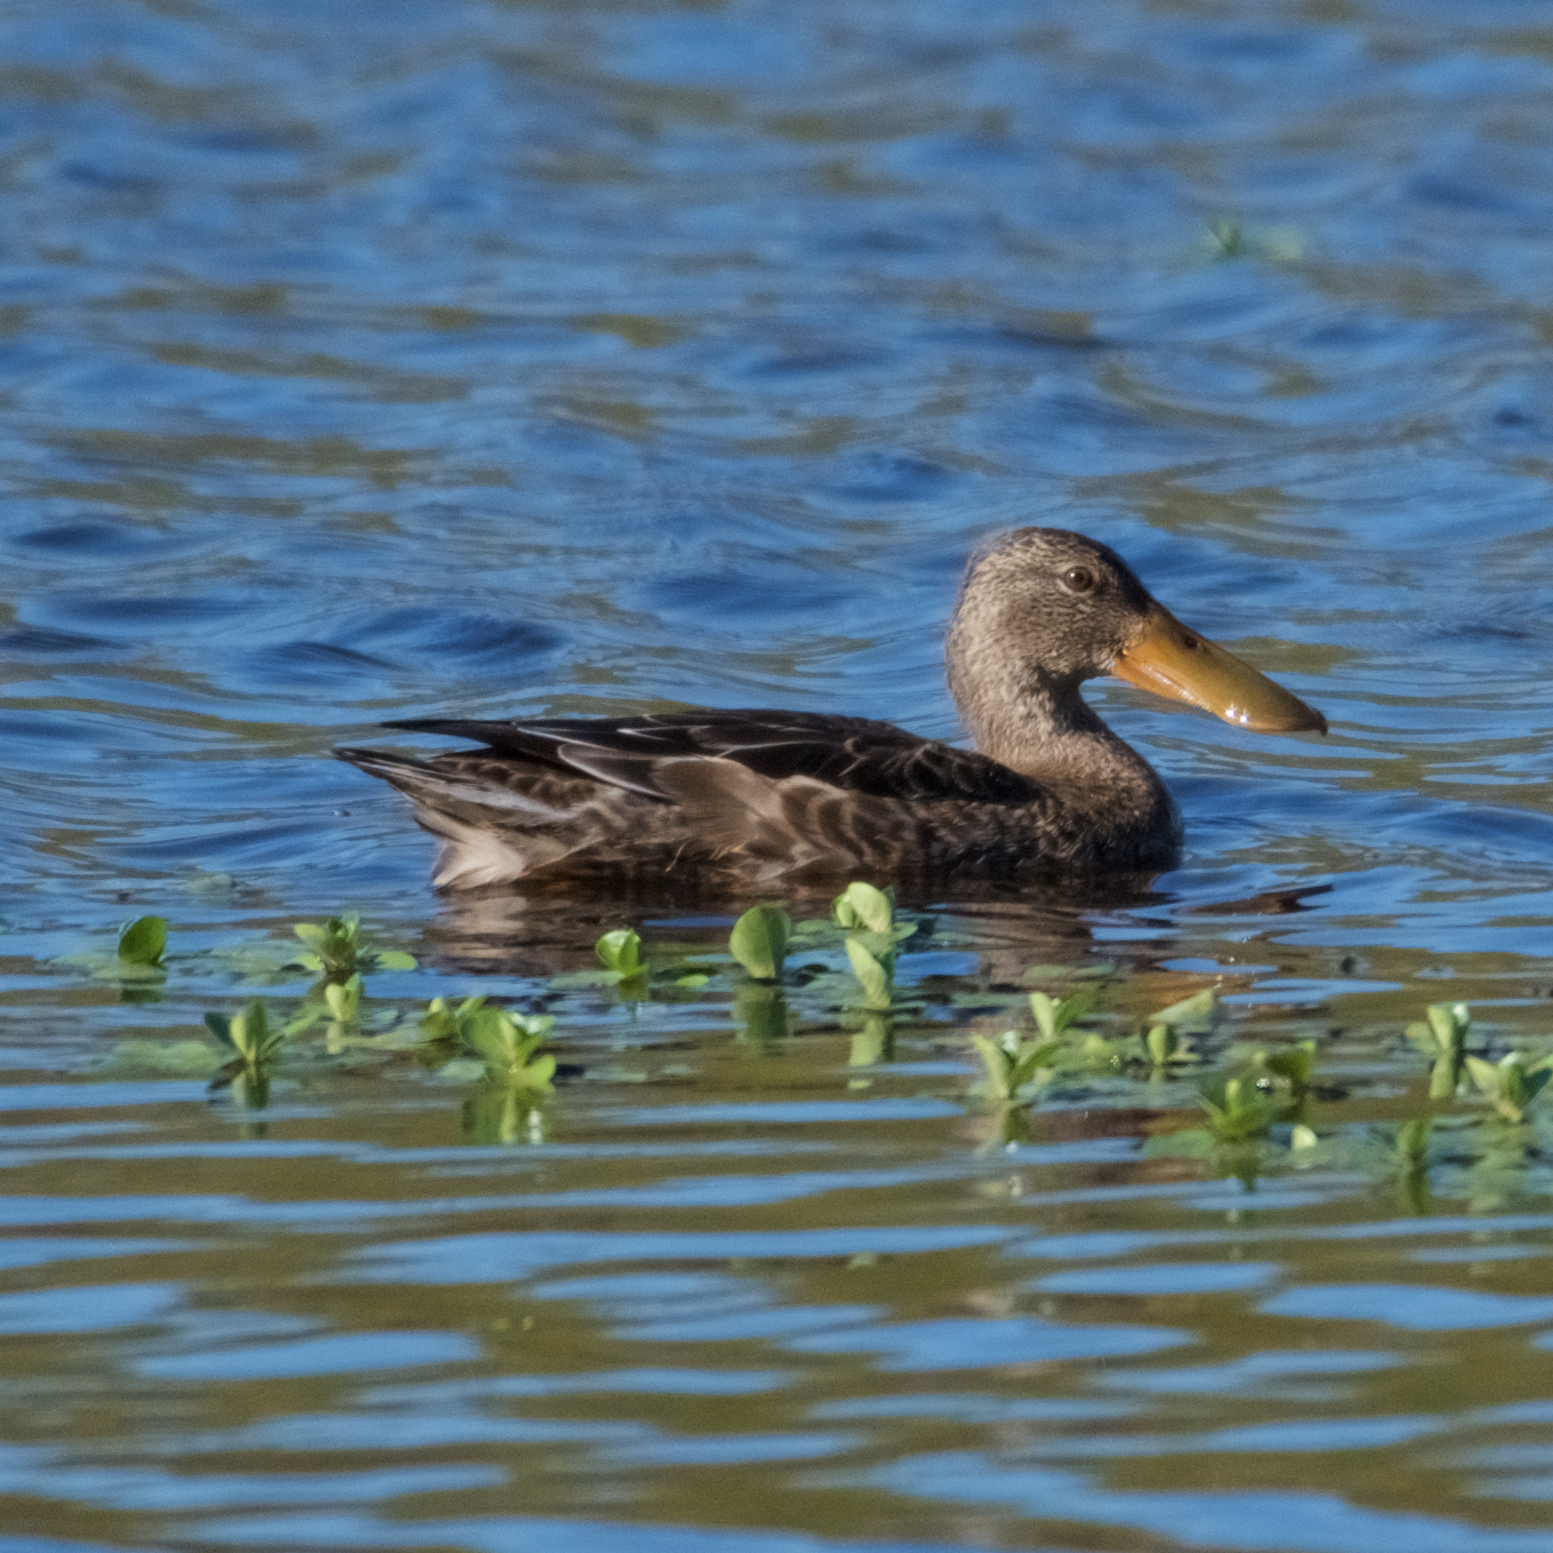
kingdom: Animalia
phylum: Chordata
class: Aves
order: Anseriformes
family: Anatidae
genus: Spatula
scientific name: Spatula clypeata
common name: Northern shoveler
